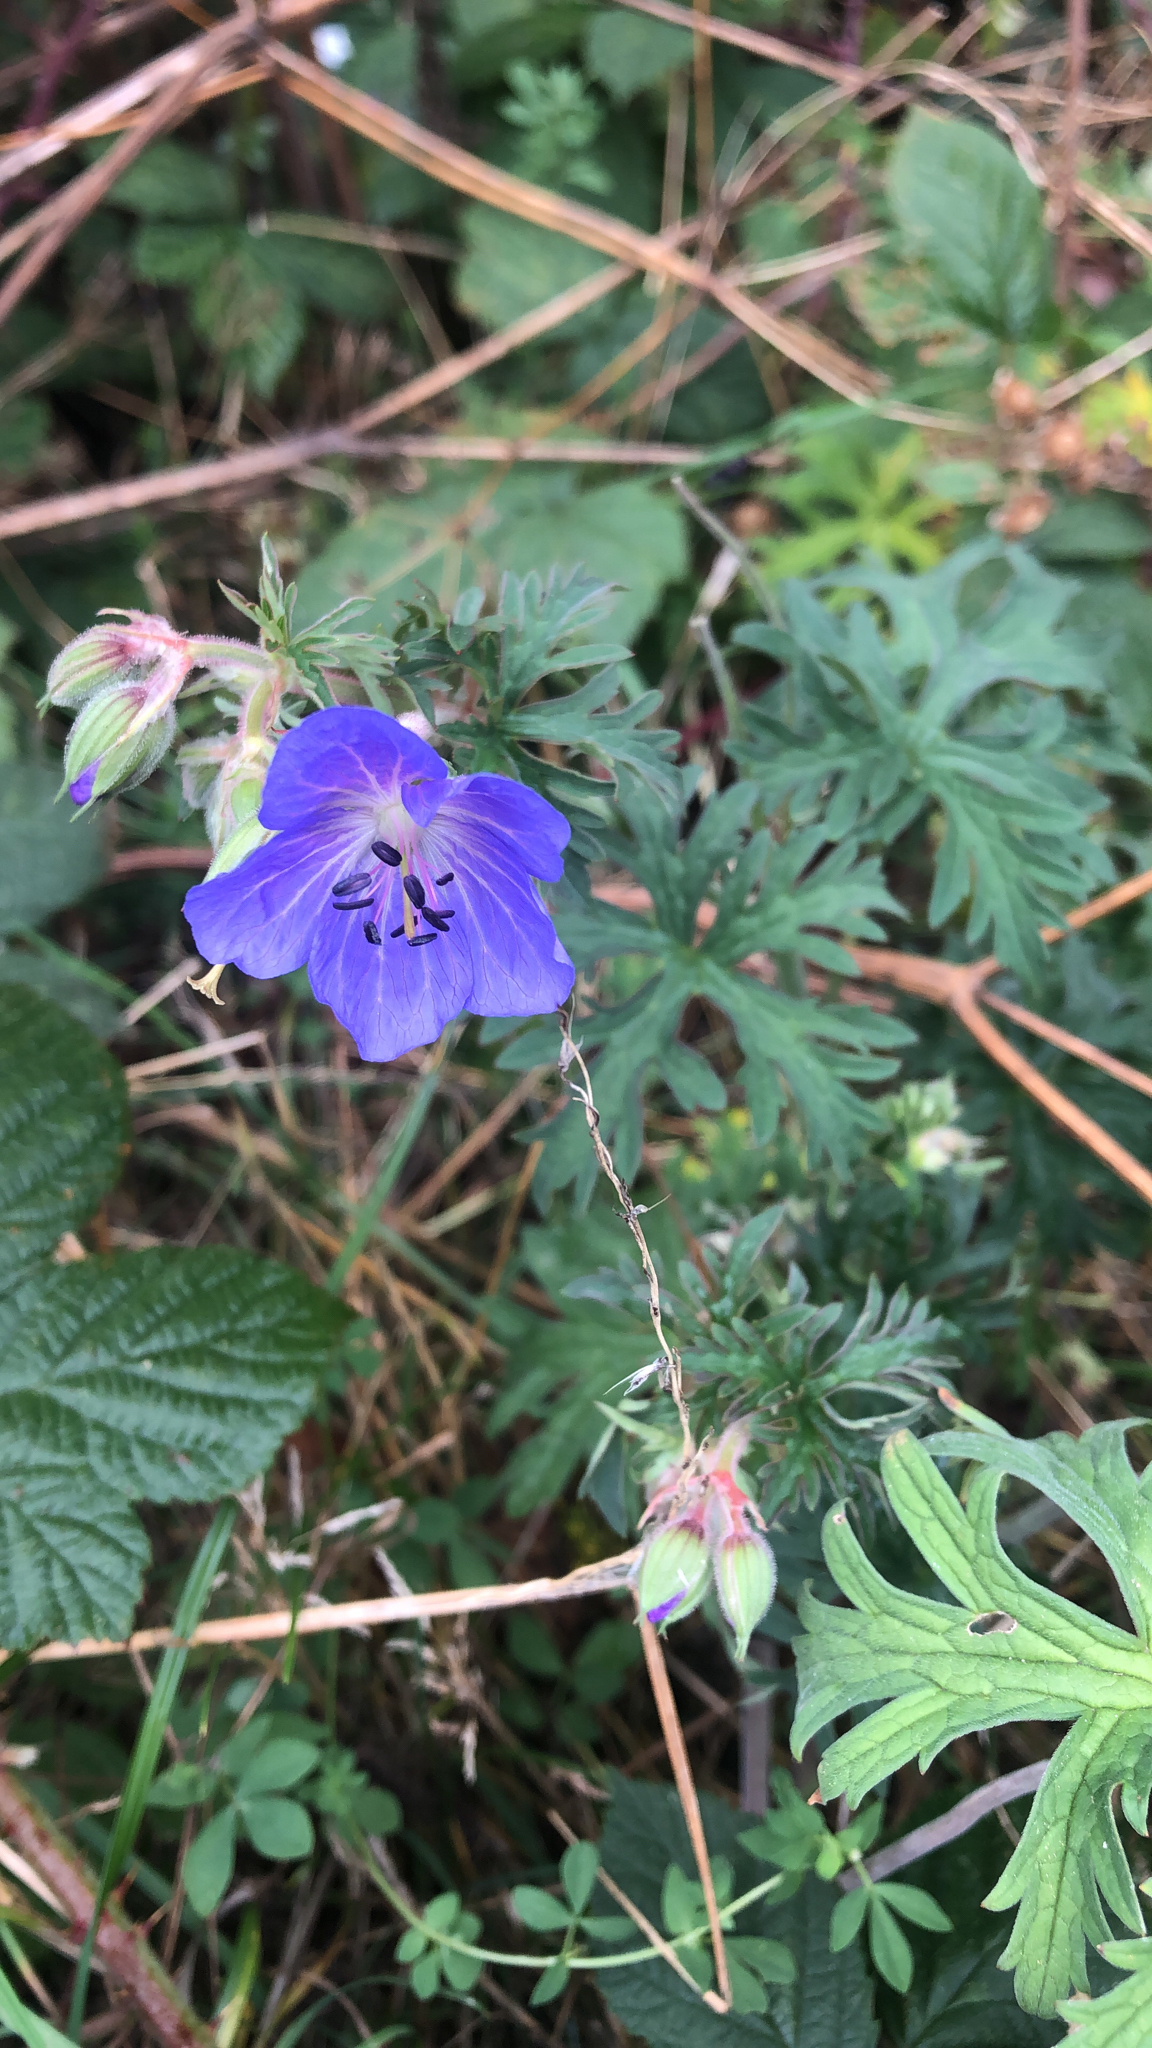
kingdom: Plantae
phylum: Tracheophyta
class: Magnoliopsida
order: Geraniales
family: Geraniaceae
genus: Geranium
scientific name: Geranium pratense
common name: Meadow crane's-bill
